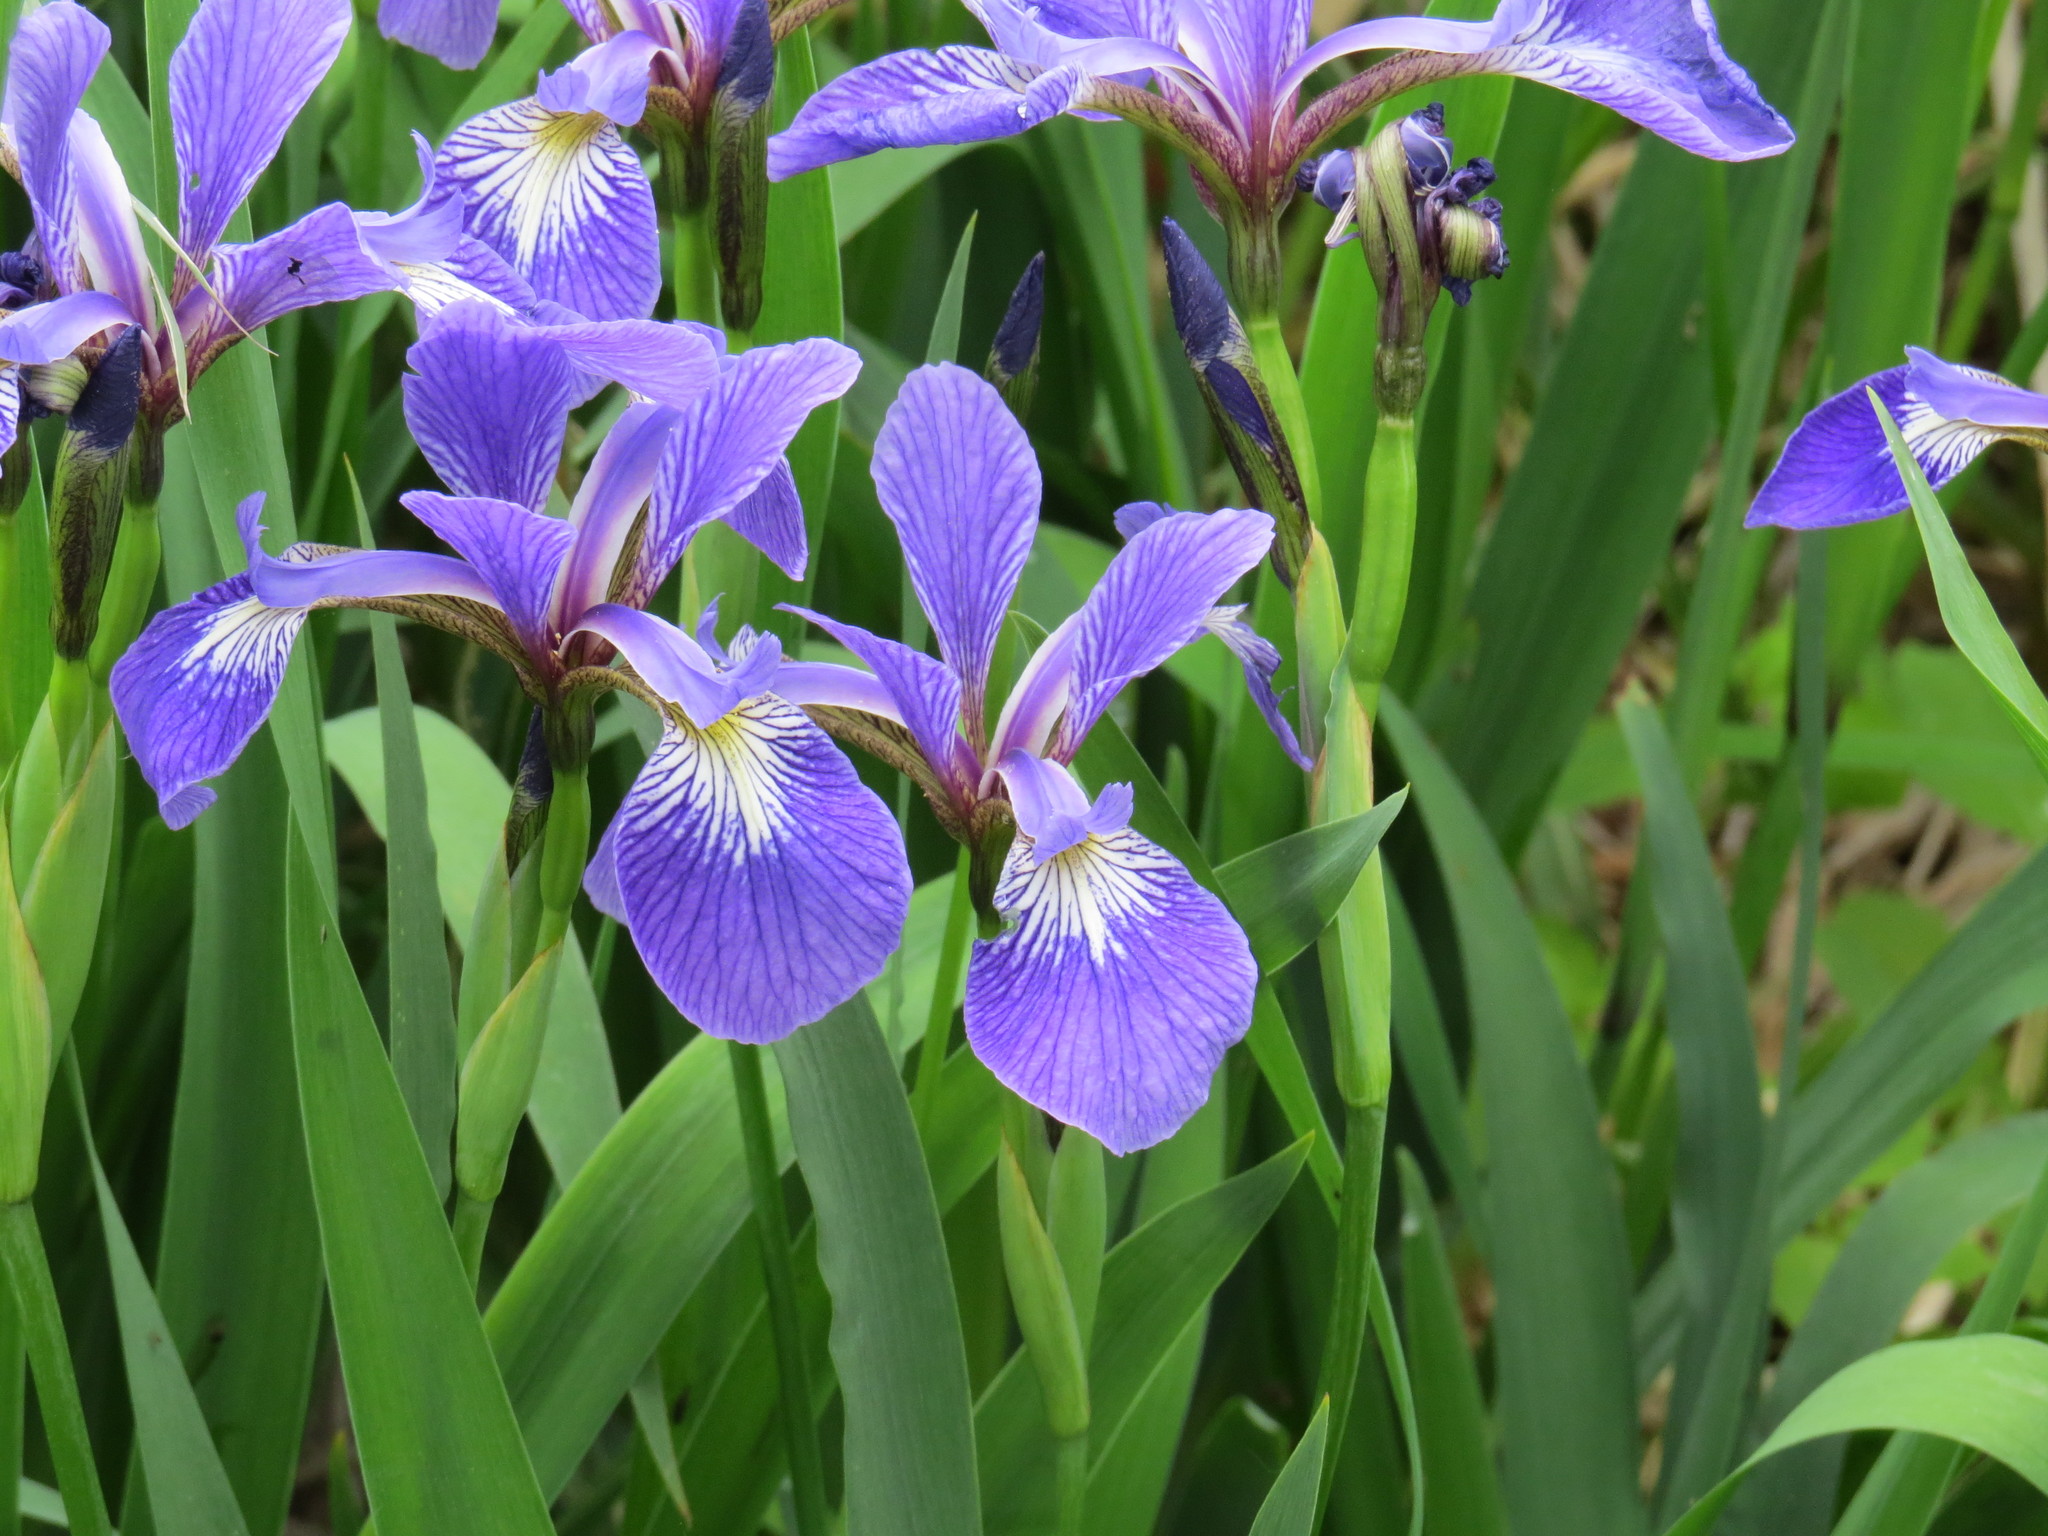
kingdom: Plantae
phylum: Tracheophyta
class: Liliopsida
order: Asparagales
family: Iridaceae
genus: Iris
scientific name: Iris versicolor
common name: Purple iris
